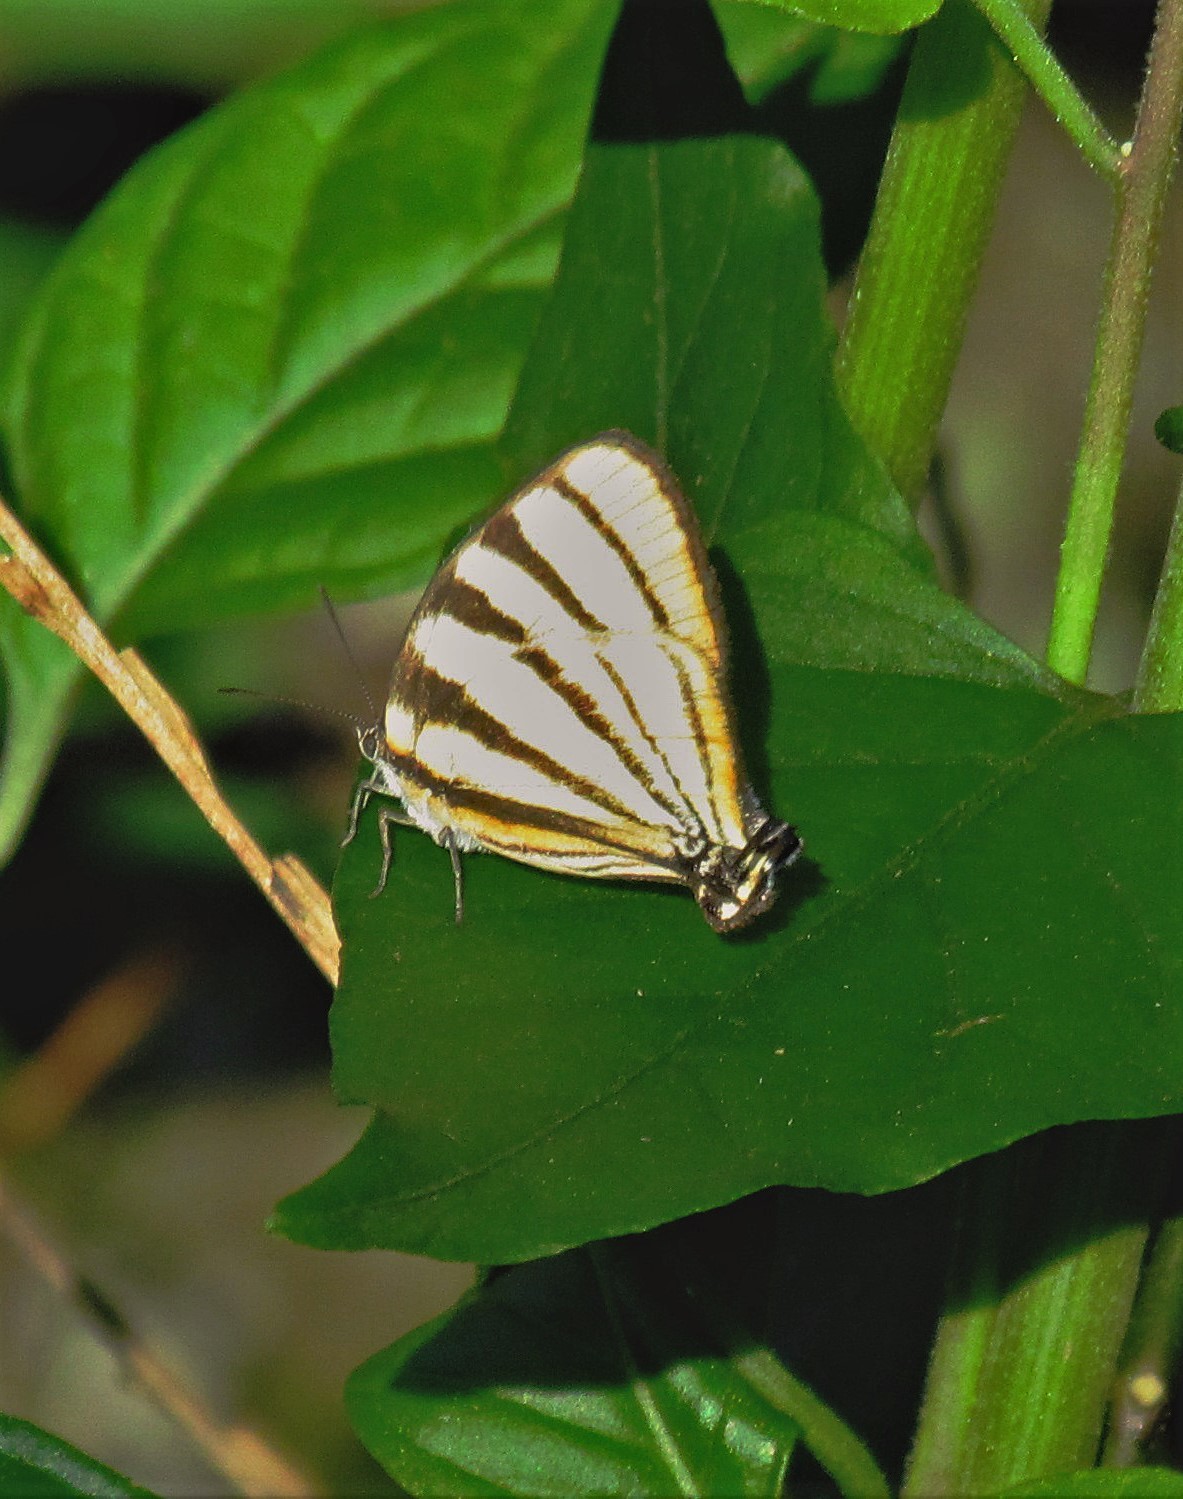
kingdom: Animalia
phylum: Arthropoda
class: Insecta
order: Lepidoptera
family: Lycaenidae
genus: Arawacus
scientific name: Arawacus separata
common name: Separated stripestreak
